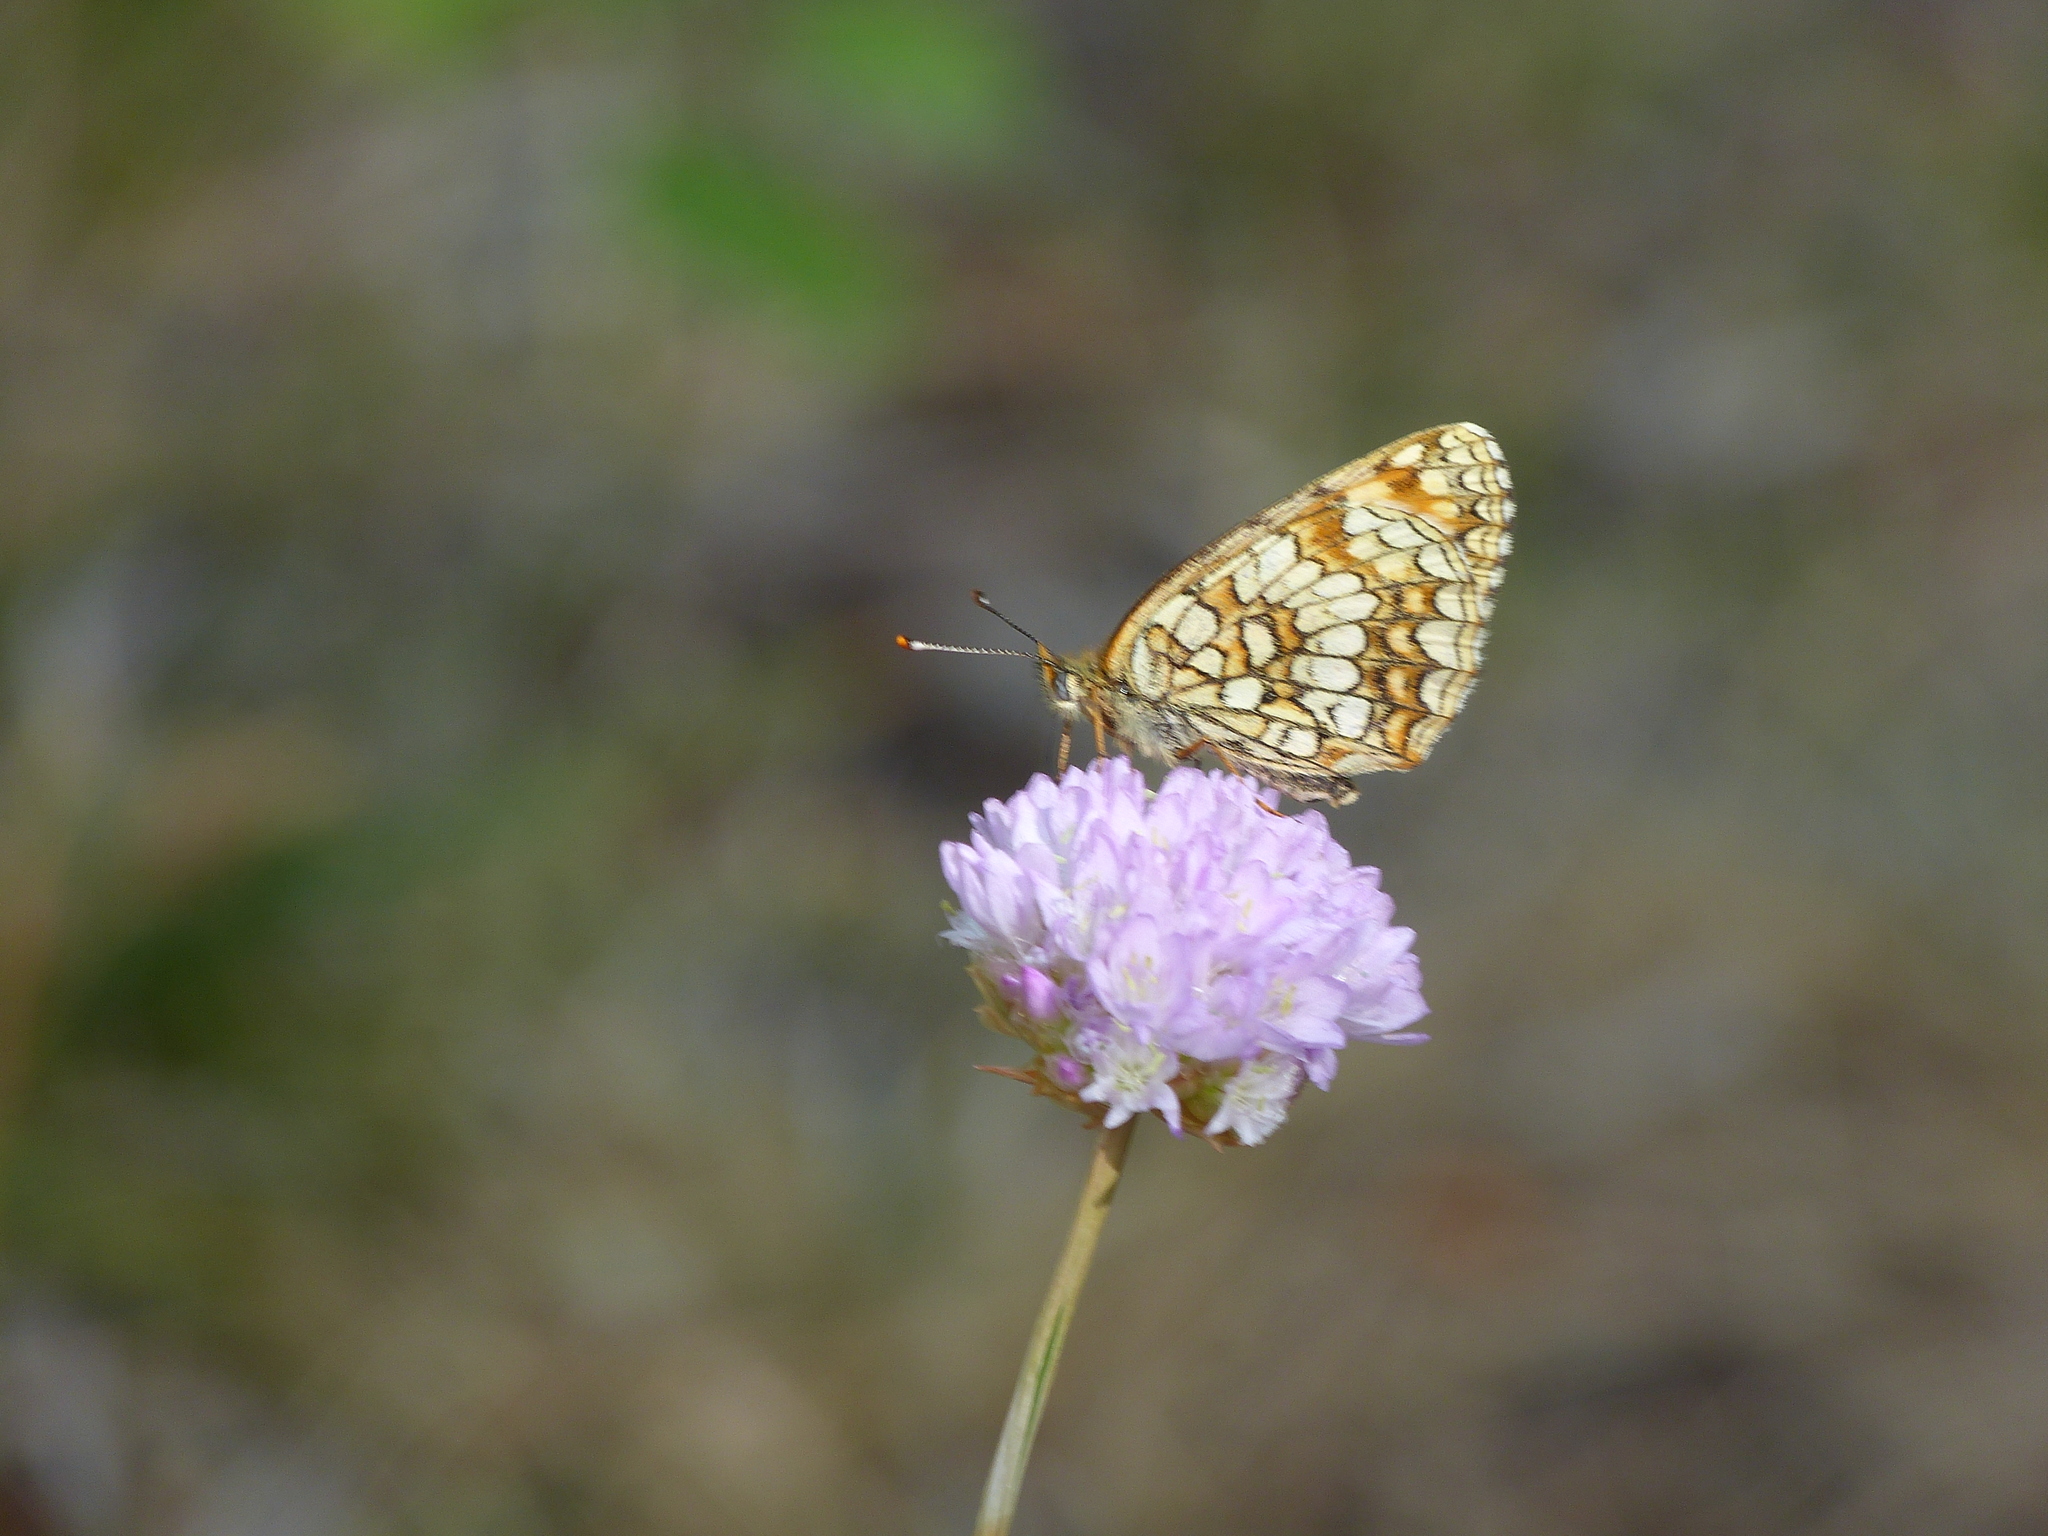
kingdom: Animalia
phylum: Arthropoda
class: Insecta
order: Lepidoptera
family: Nymphalidae
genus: Melitaea
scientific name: Melitaea diamina
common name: False heath fritillary
